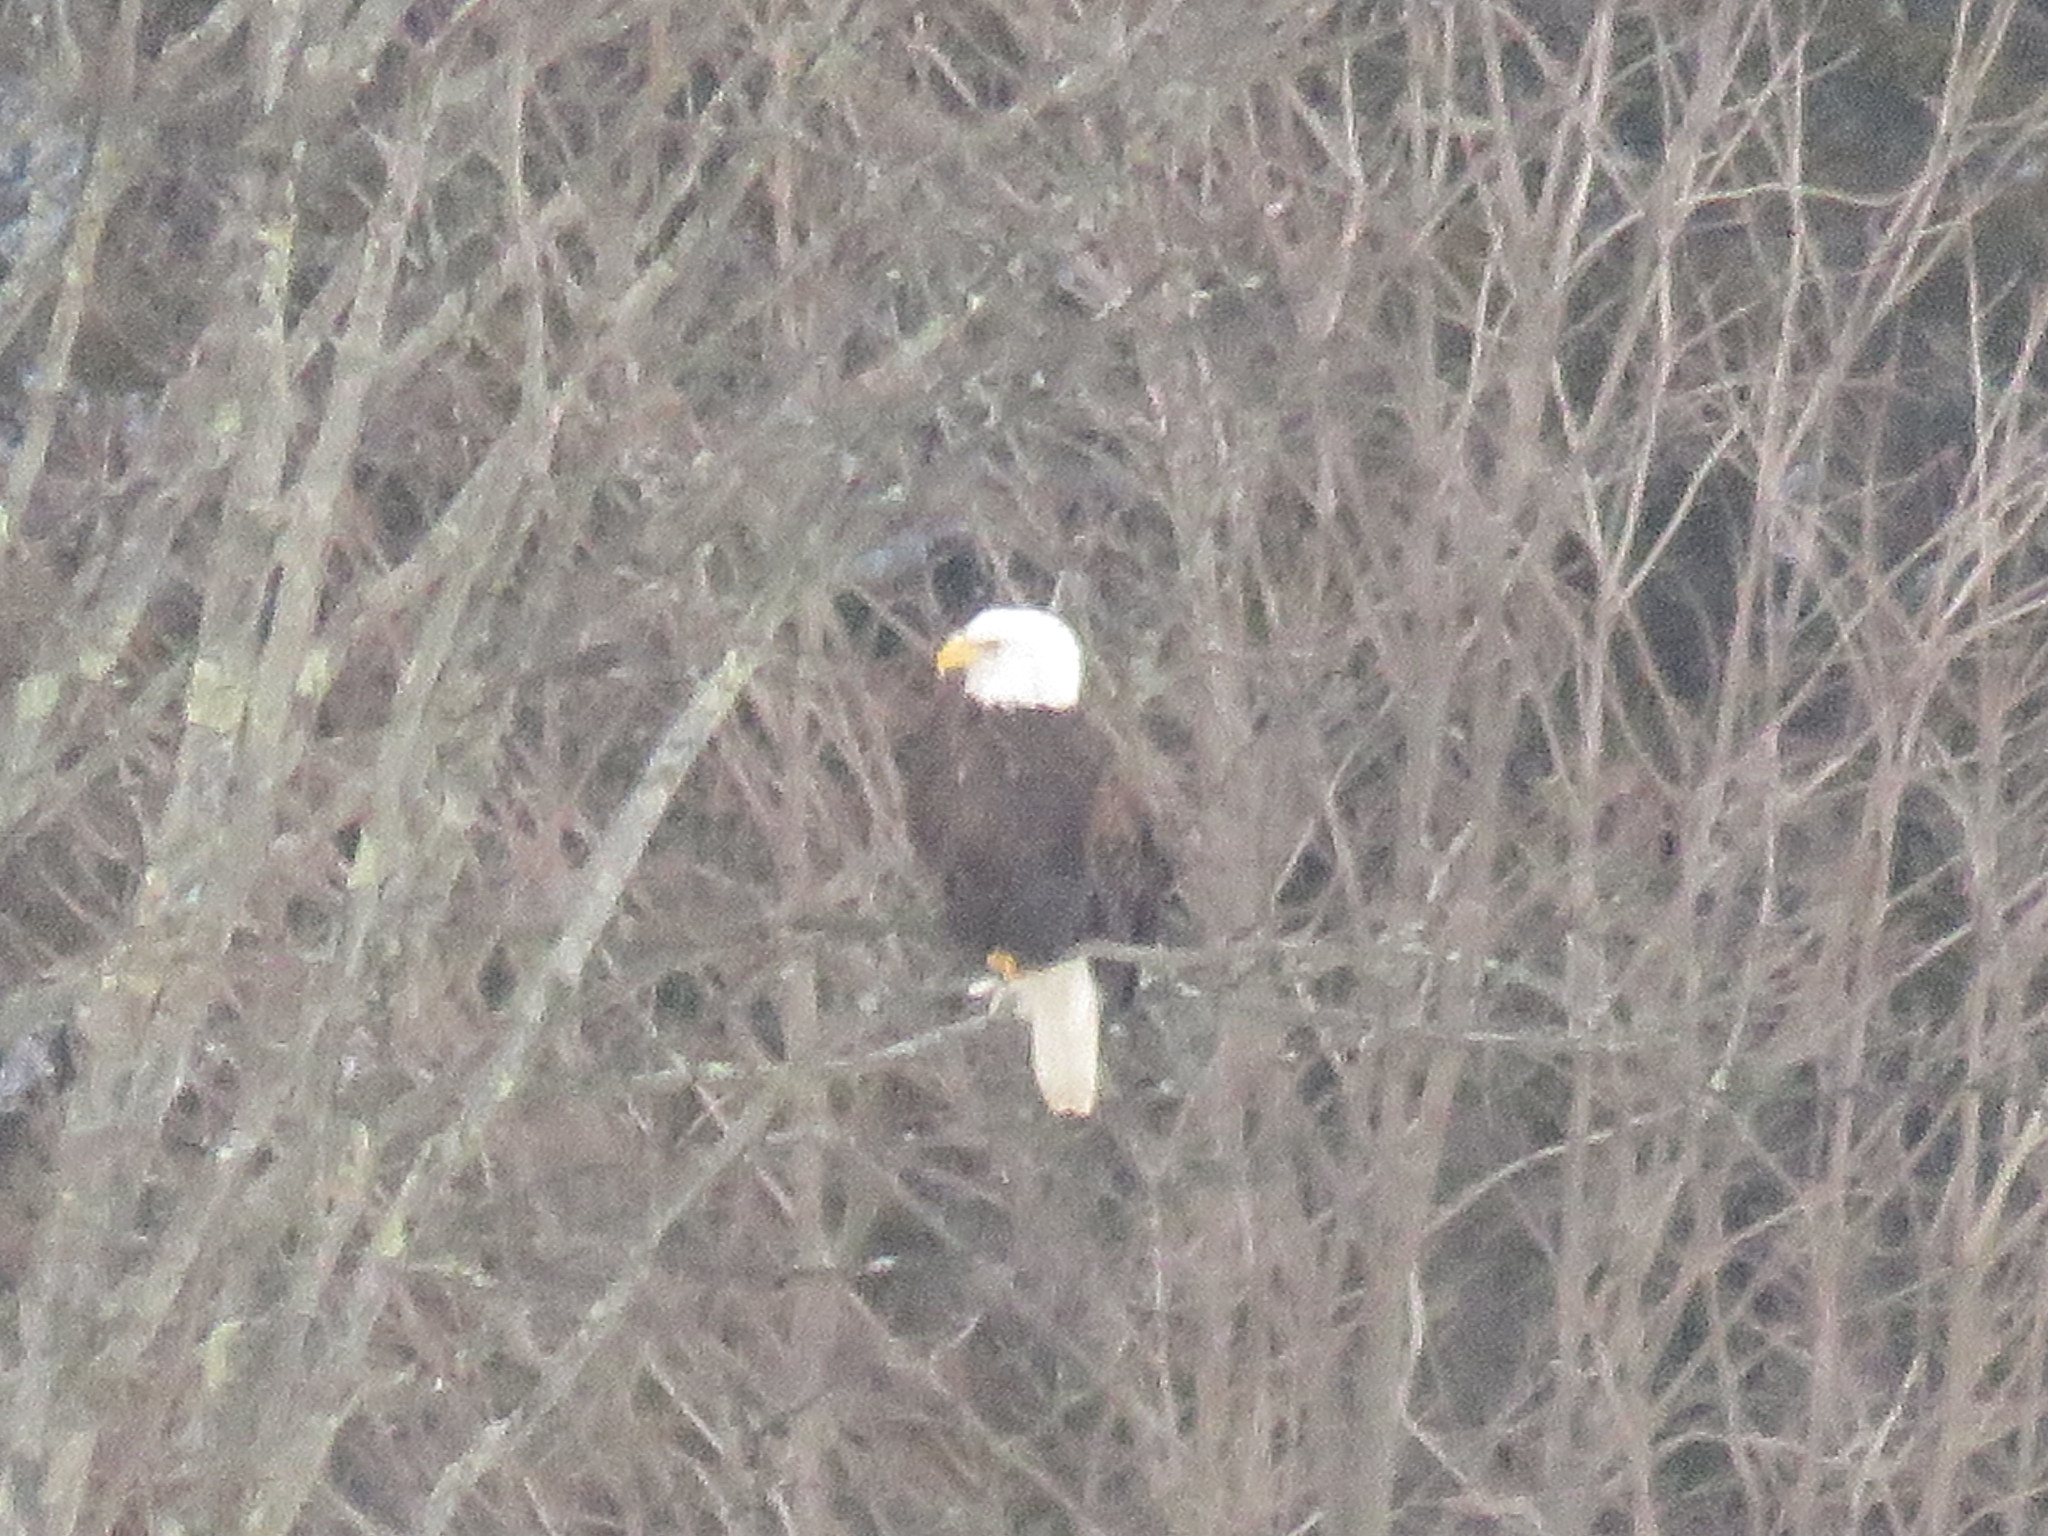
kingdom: Animalia
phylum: Chordata
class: Aves
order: Accipitriformes
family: Accipitridae
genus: Haliaeetus
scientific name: Haliaeetus leucocephalus
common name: Bald eagle
